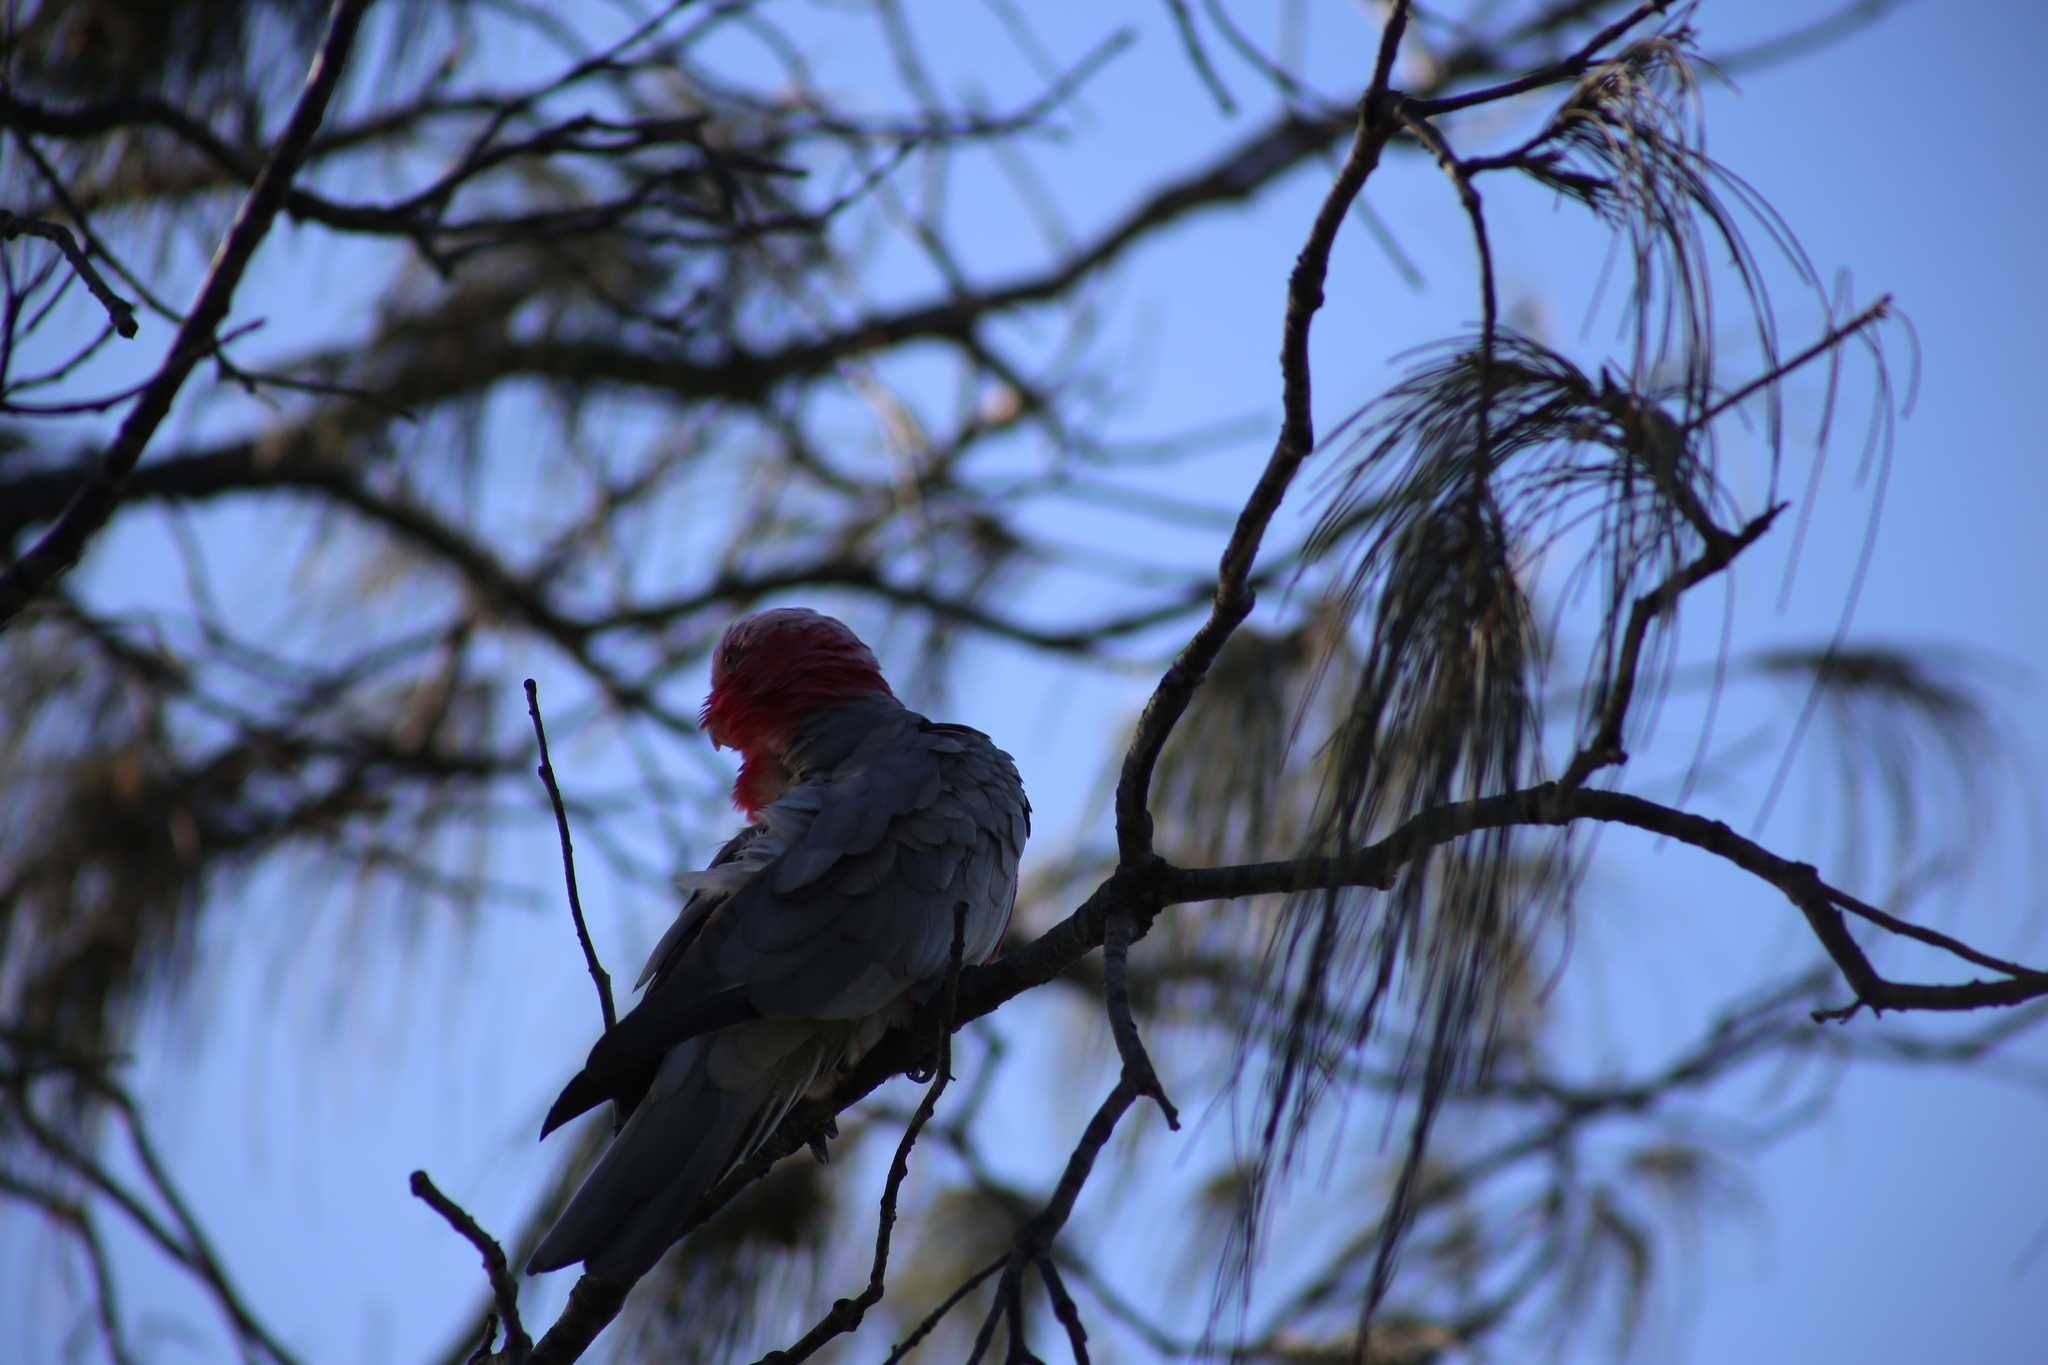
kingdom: Animalia
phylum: Chordata
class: Aves
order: Psittaciformes
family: Psittacidae
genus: Eolophus
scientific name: Eolophus roseicapilla
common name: Galah
